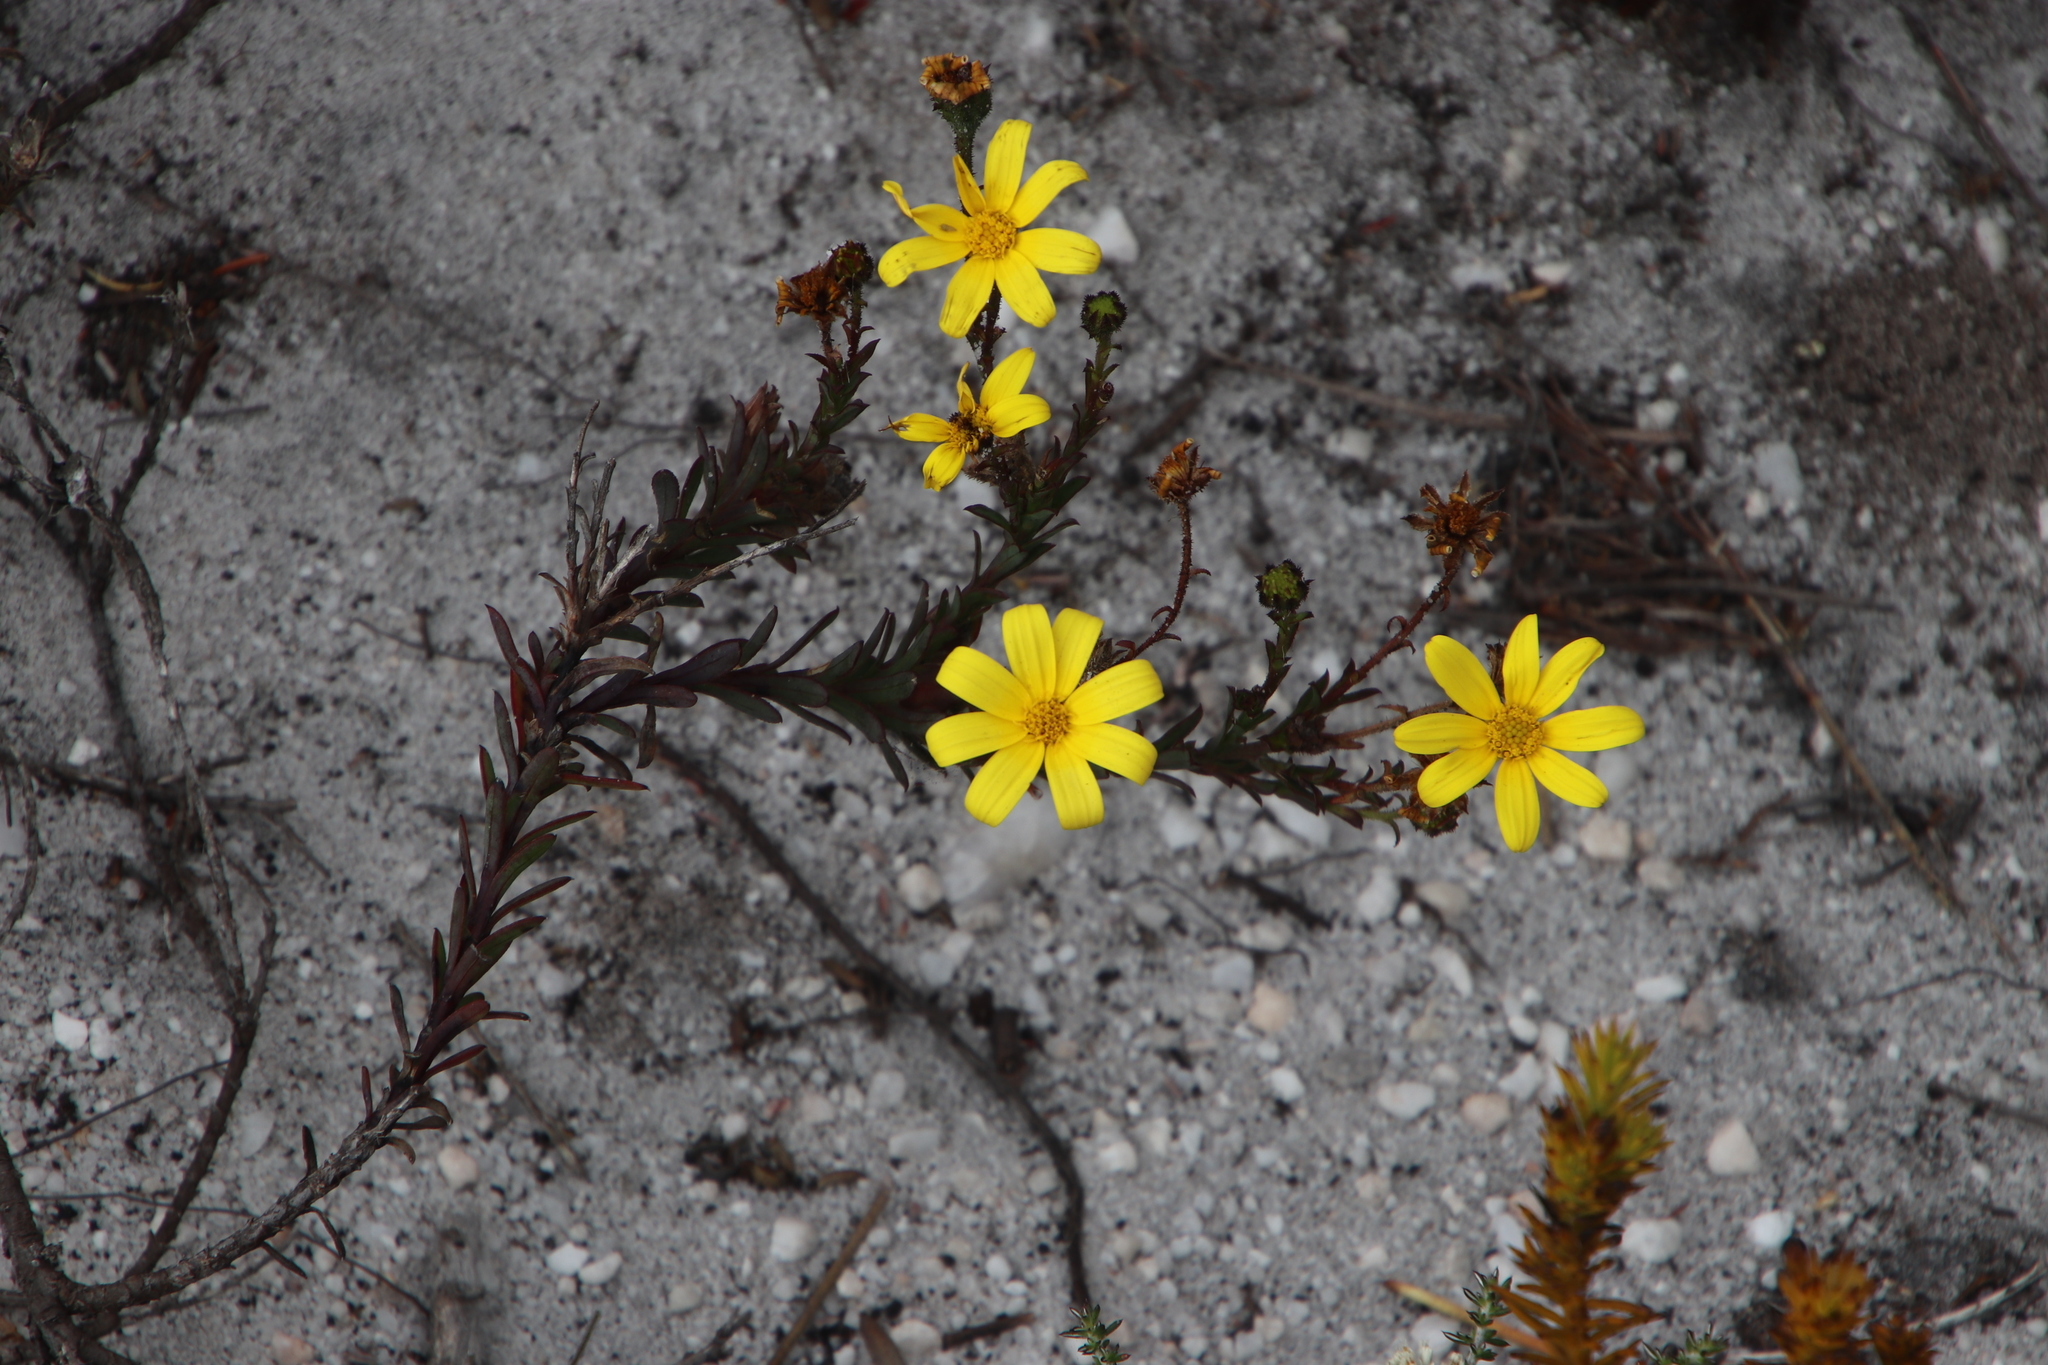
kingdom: Plantae
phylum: Tracheophyta
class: Magnoliopsida
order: Asterales
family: Asteraceae
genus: Osteospermum
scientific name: Osteospermum polygaloides
